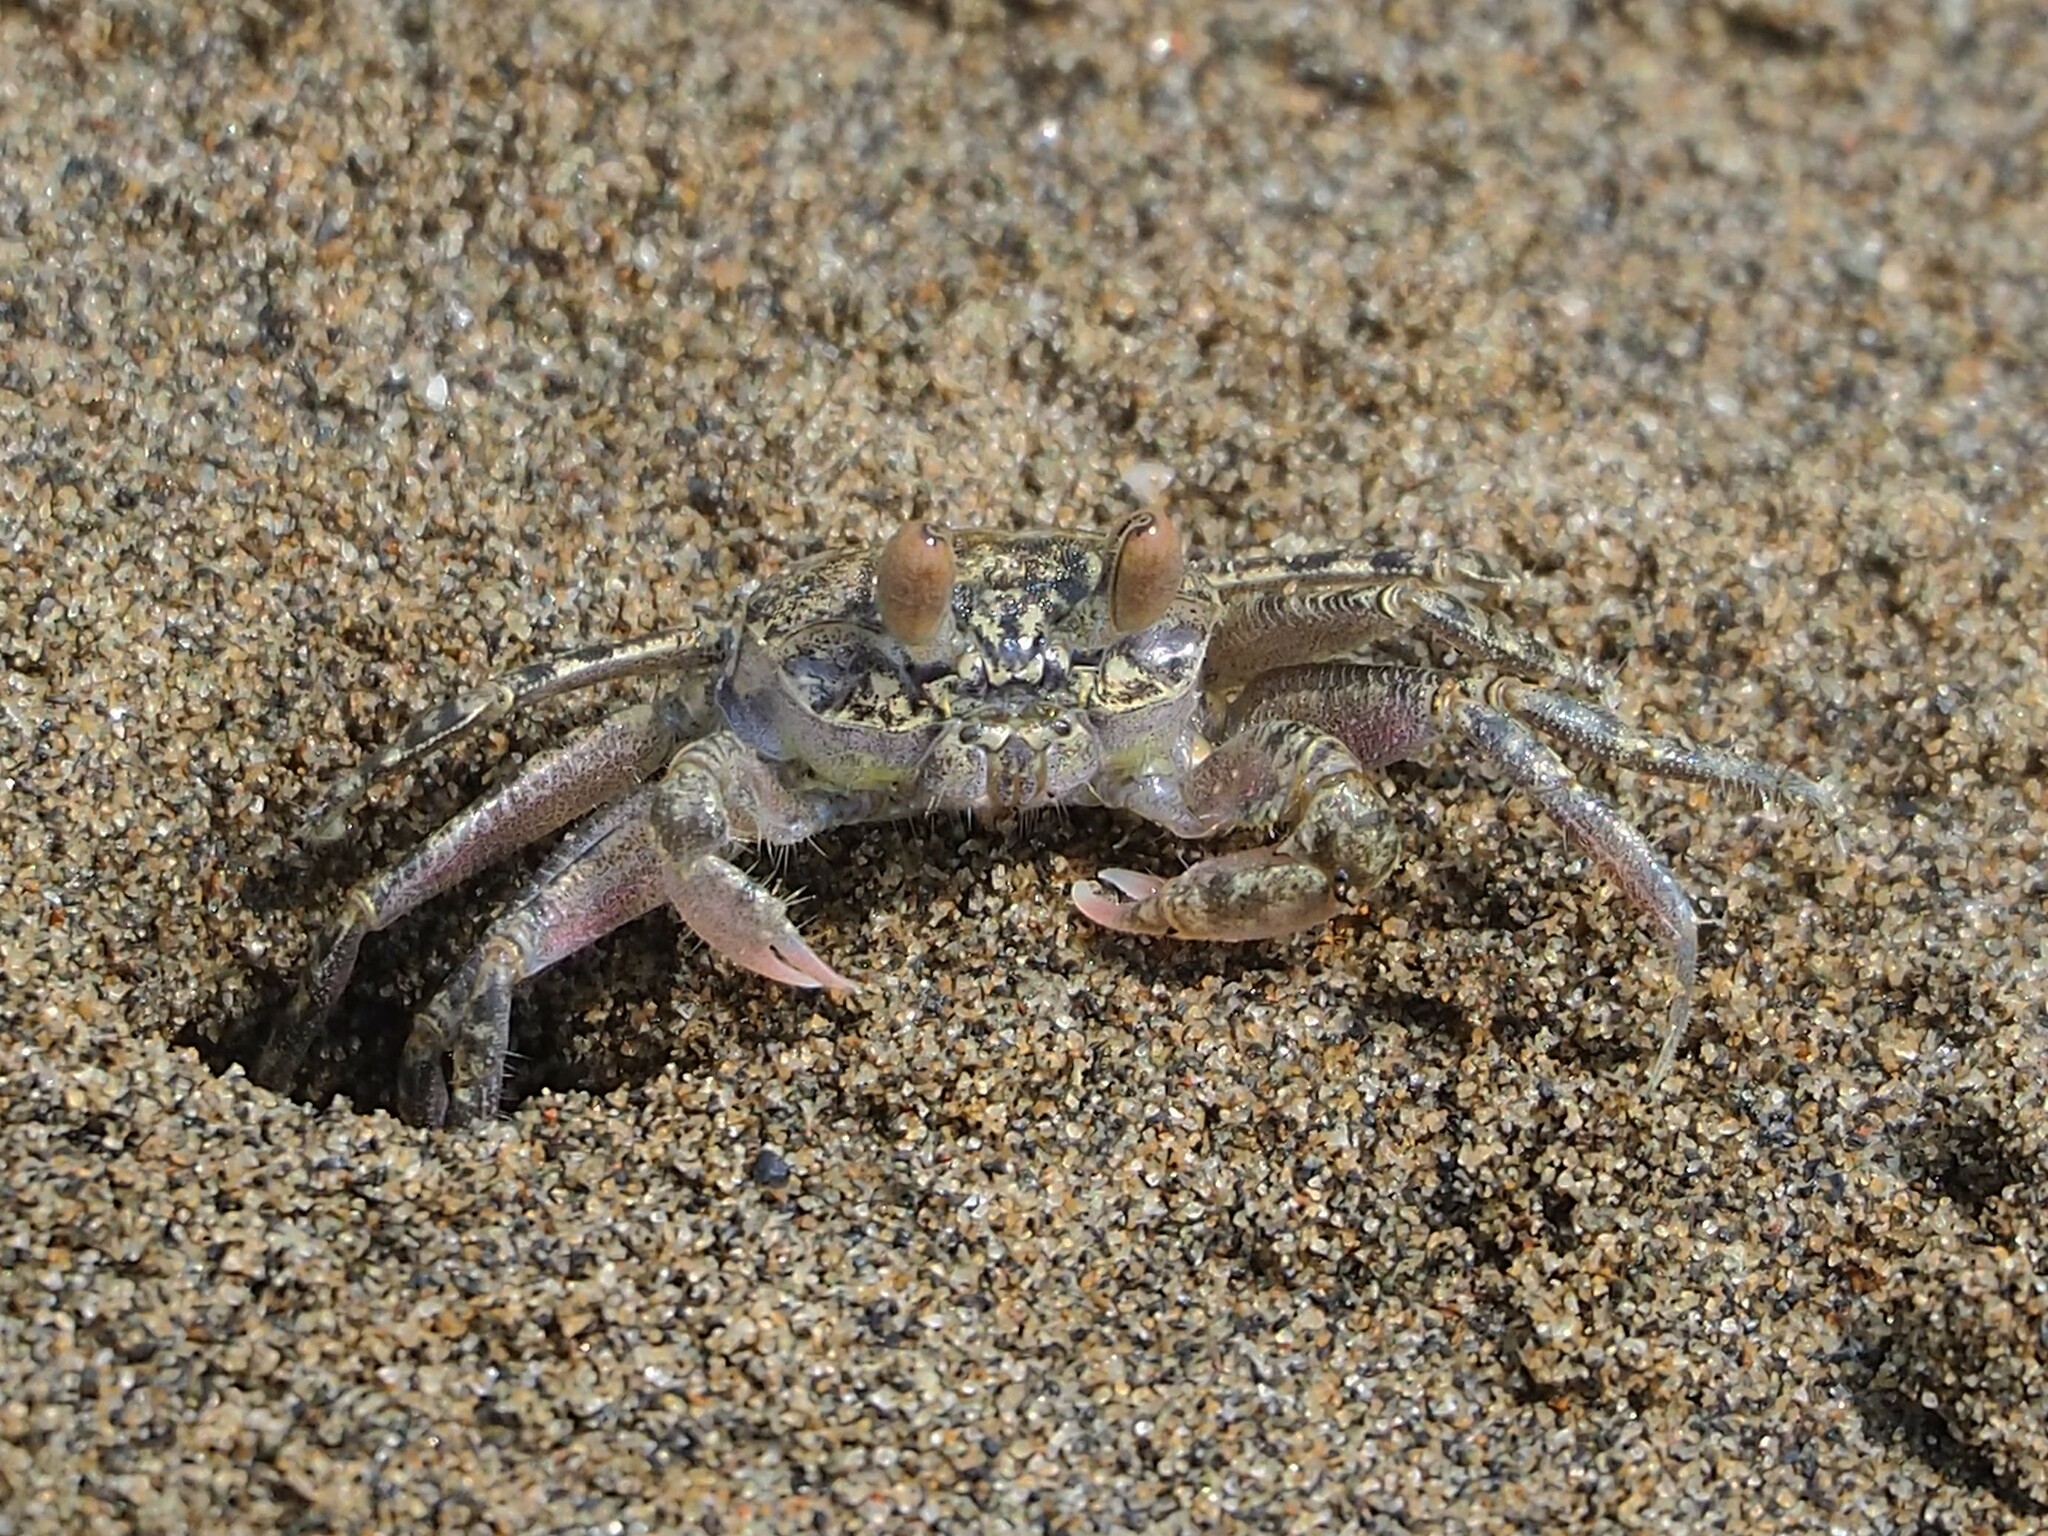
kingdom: Animalia
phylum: Arthropoda
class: Malacostraca
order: Decapoda
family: Ocypodidae
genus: Ocypode
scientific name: Ocypode stimpsoni
